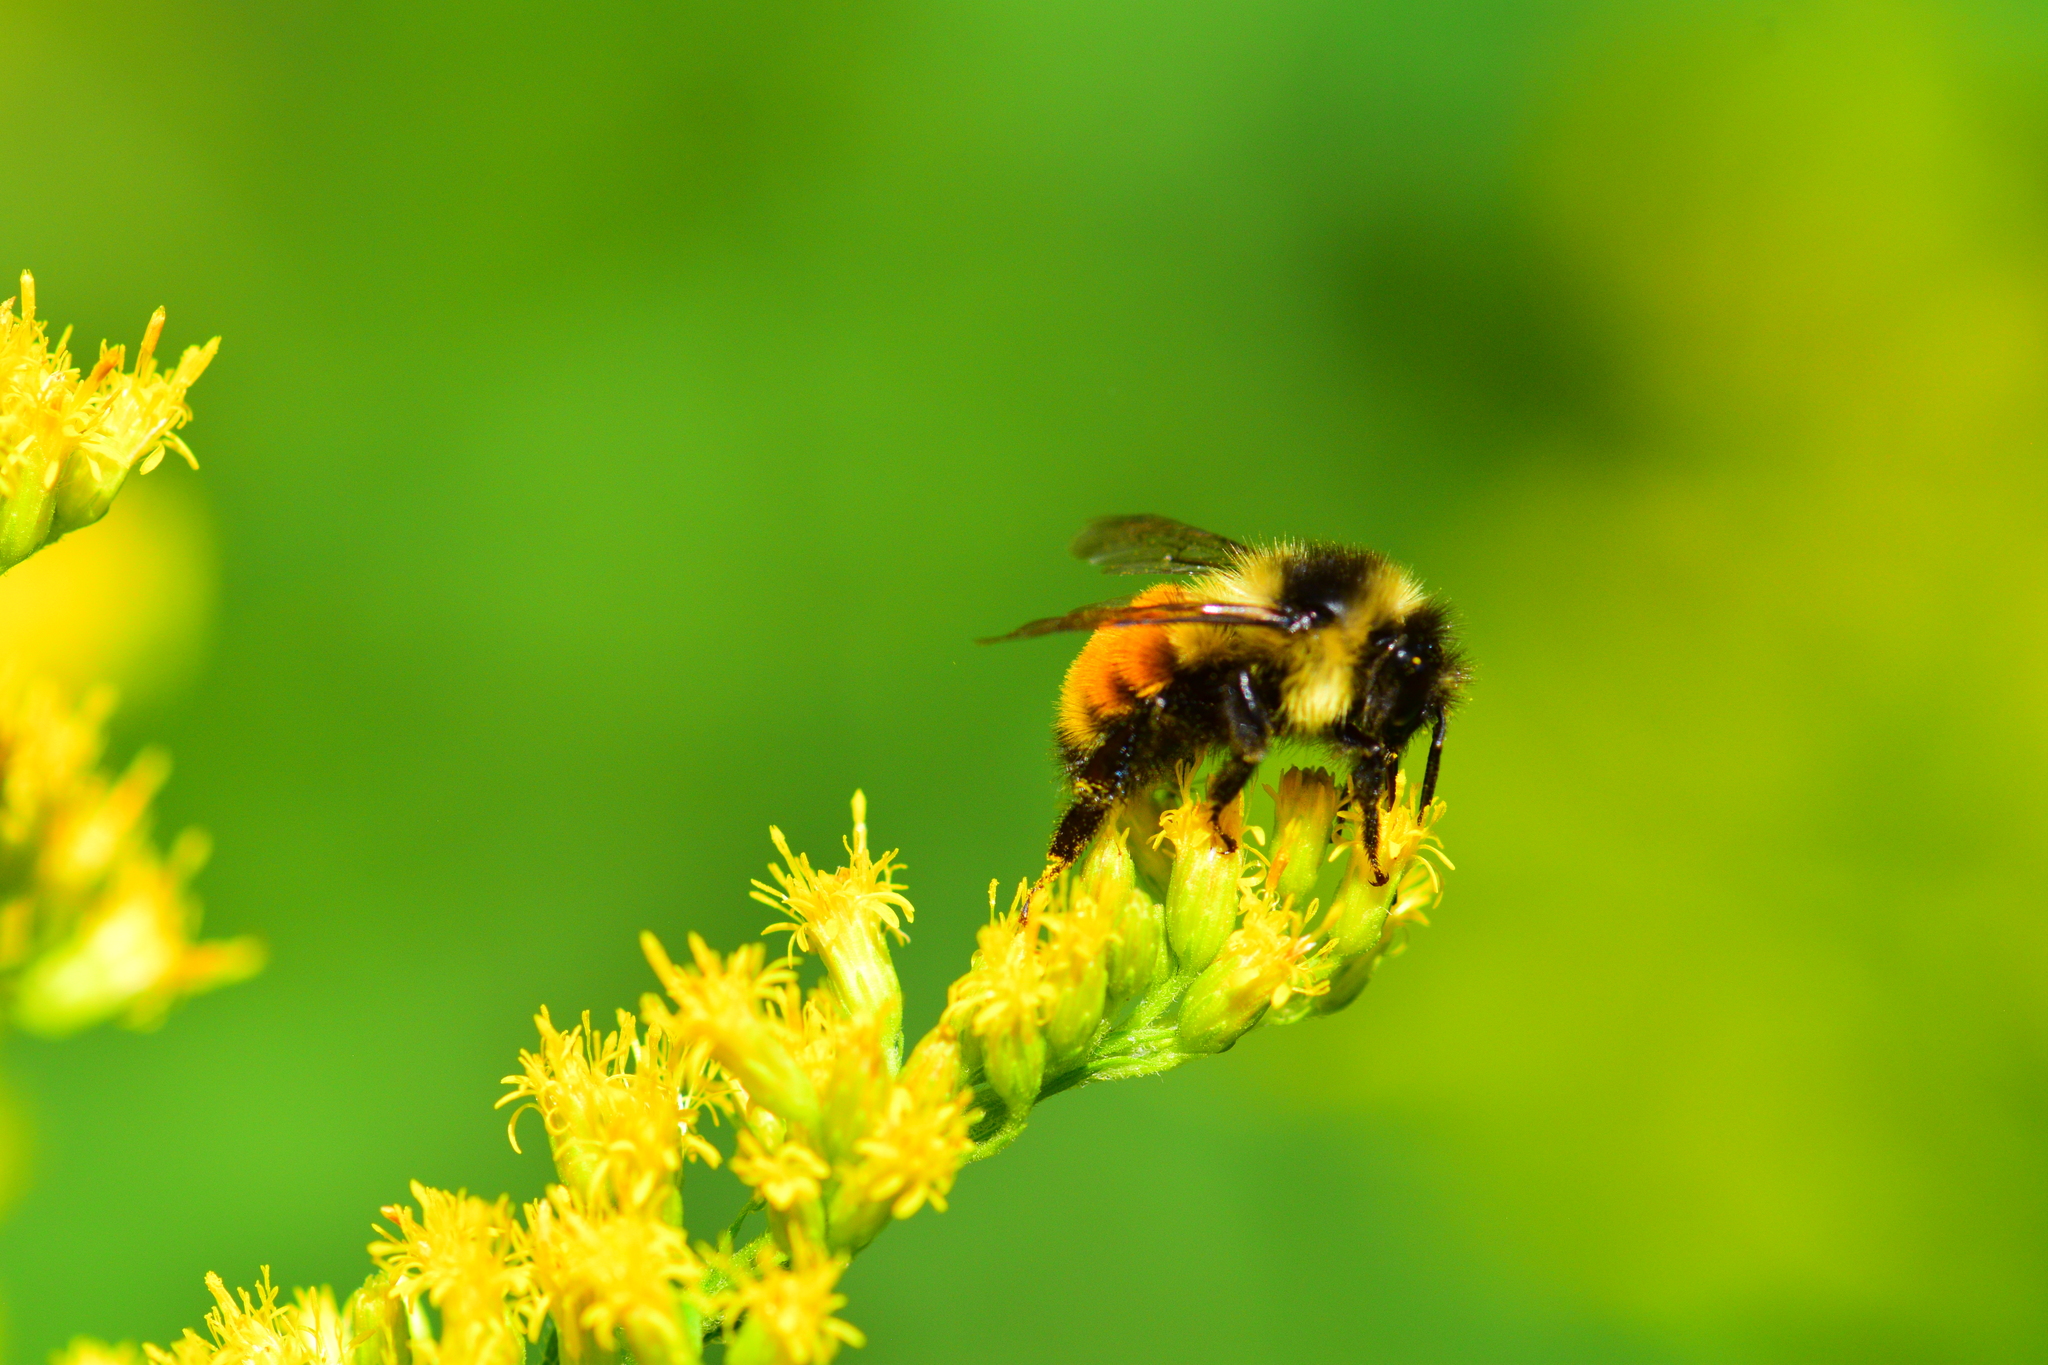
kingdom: Animalia
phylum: Arthropoda
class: Insecta
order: Hymenoptera
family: Apidae
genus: Bombus
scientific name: Bombus ternarius
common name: Tri-colored bumble bee
